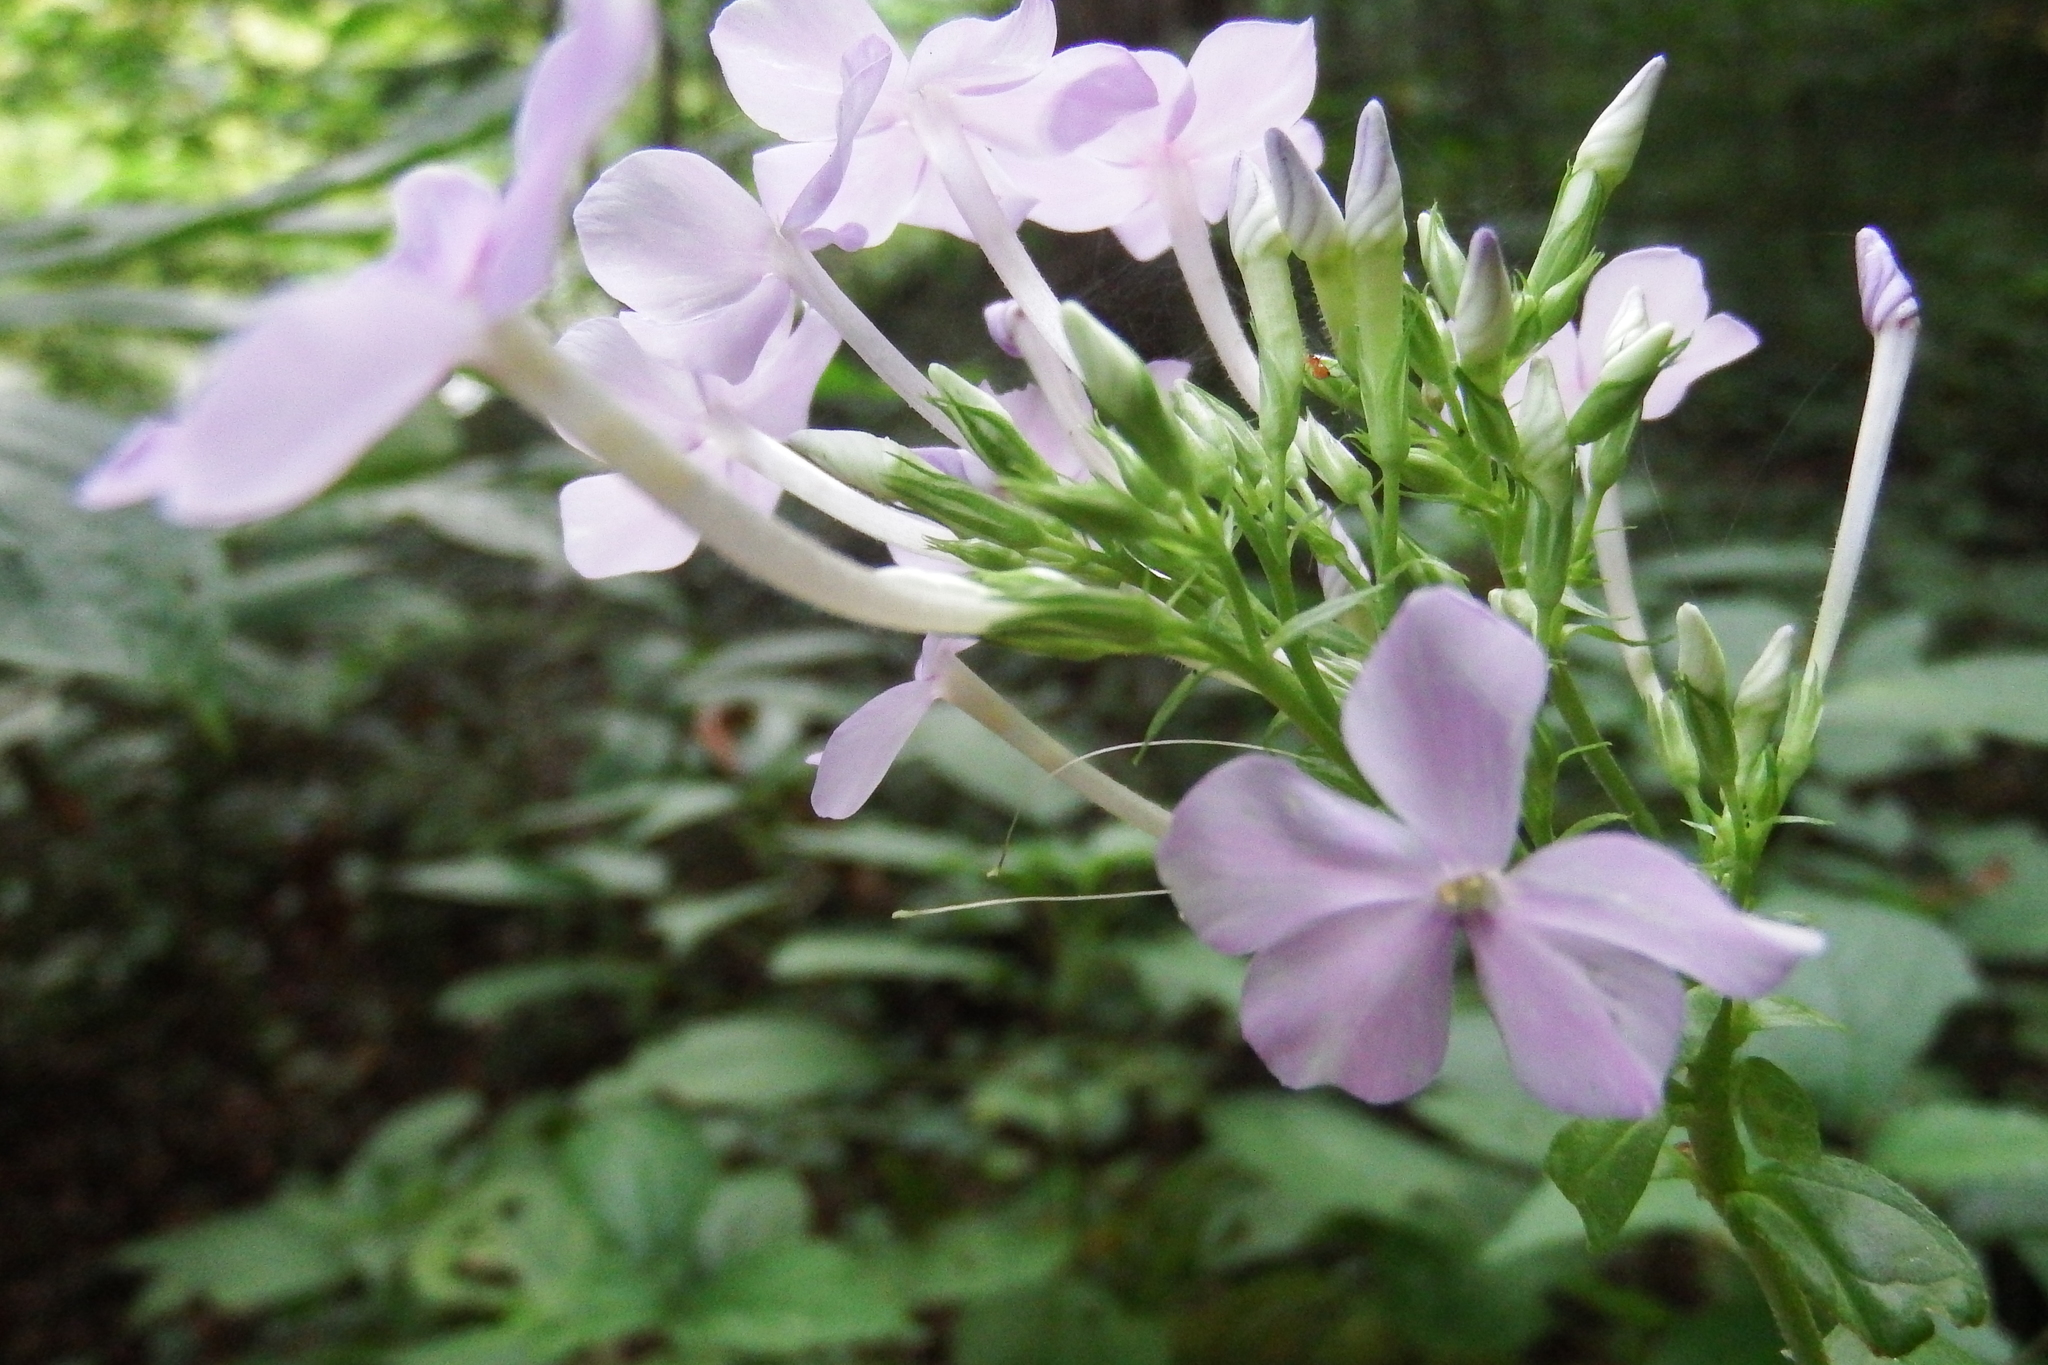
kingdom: Plantae
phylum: Tracheophyta
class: Magnoliopsida
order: Ericales
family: Polemoniaceae
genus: Phlox
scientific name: Phlox paniculata
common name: Fall phlox
